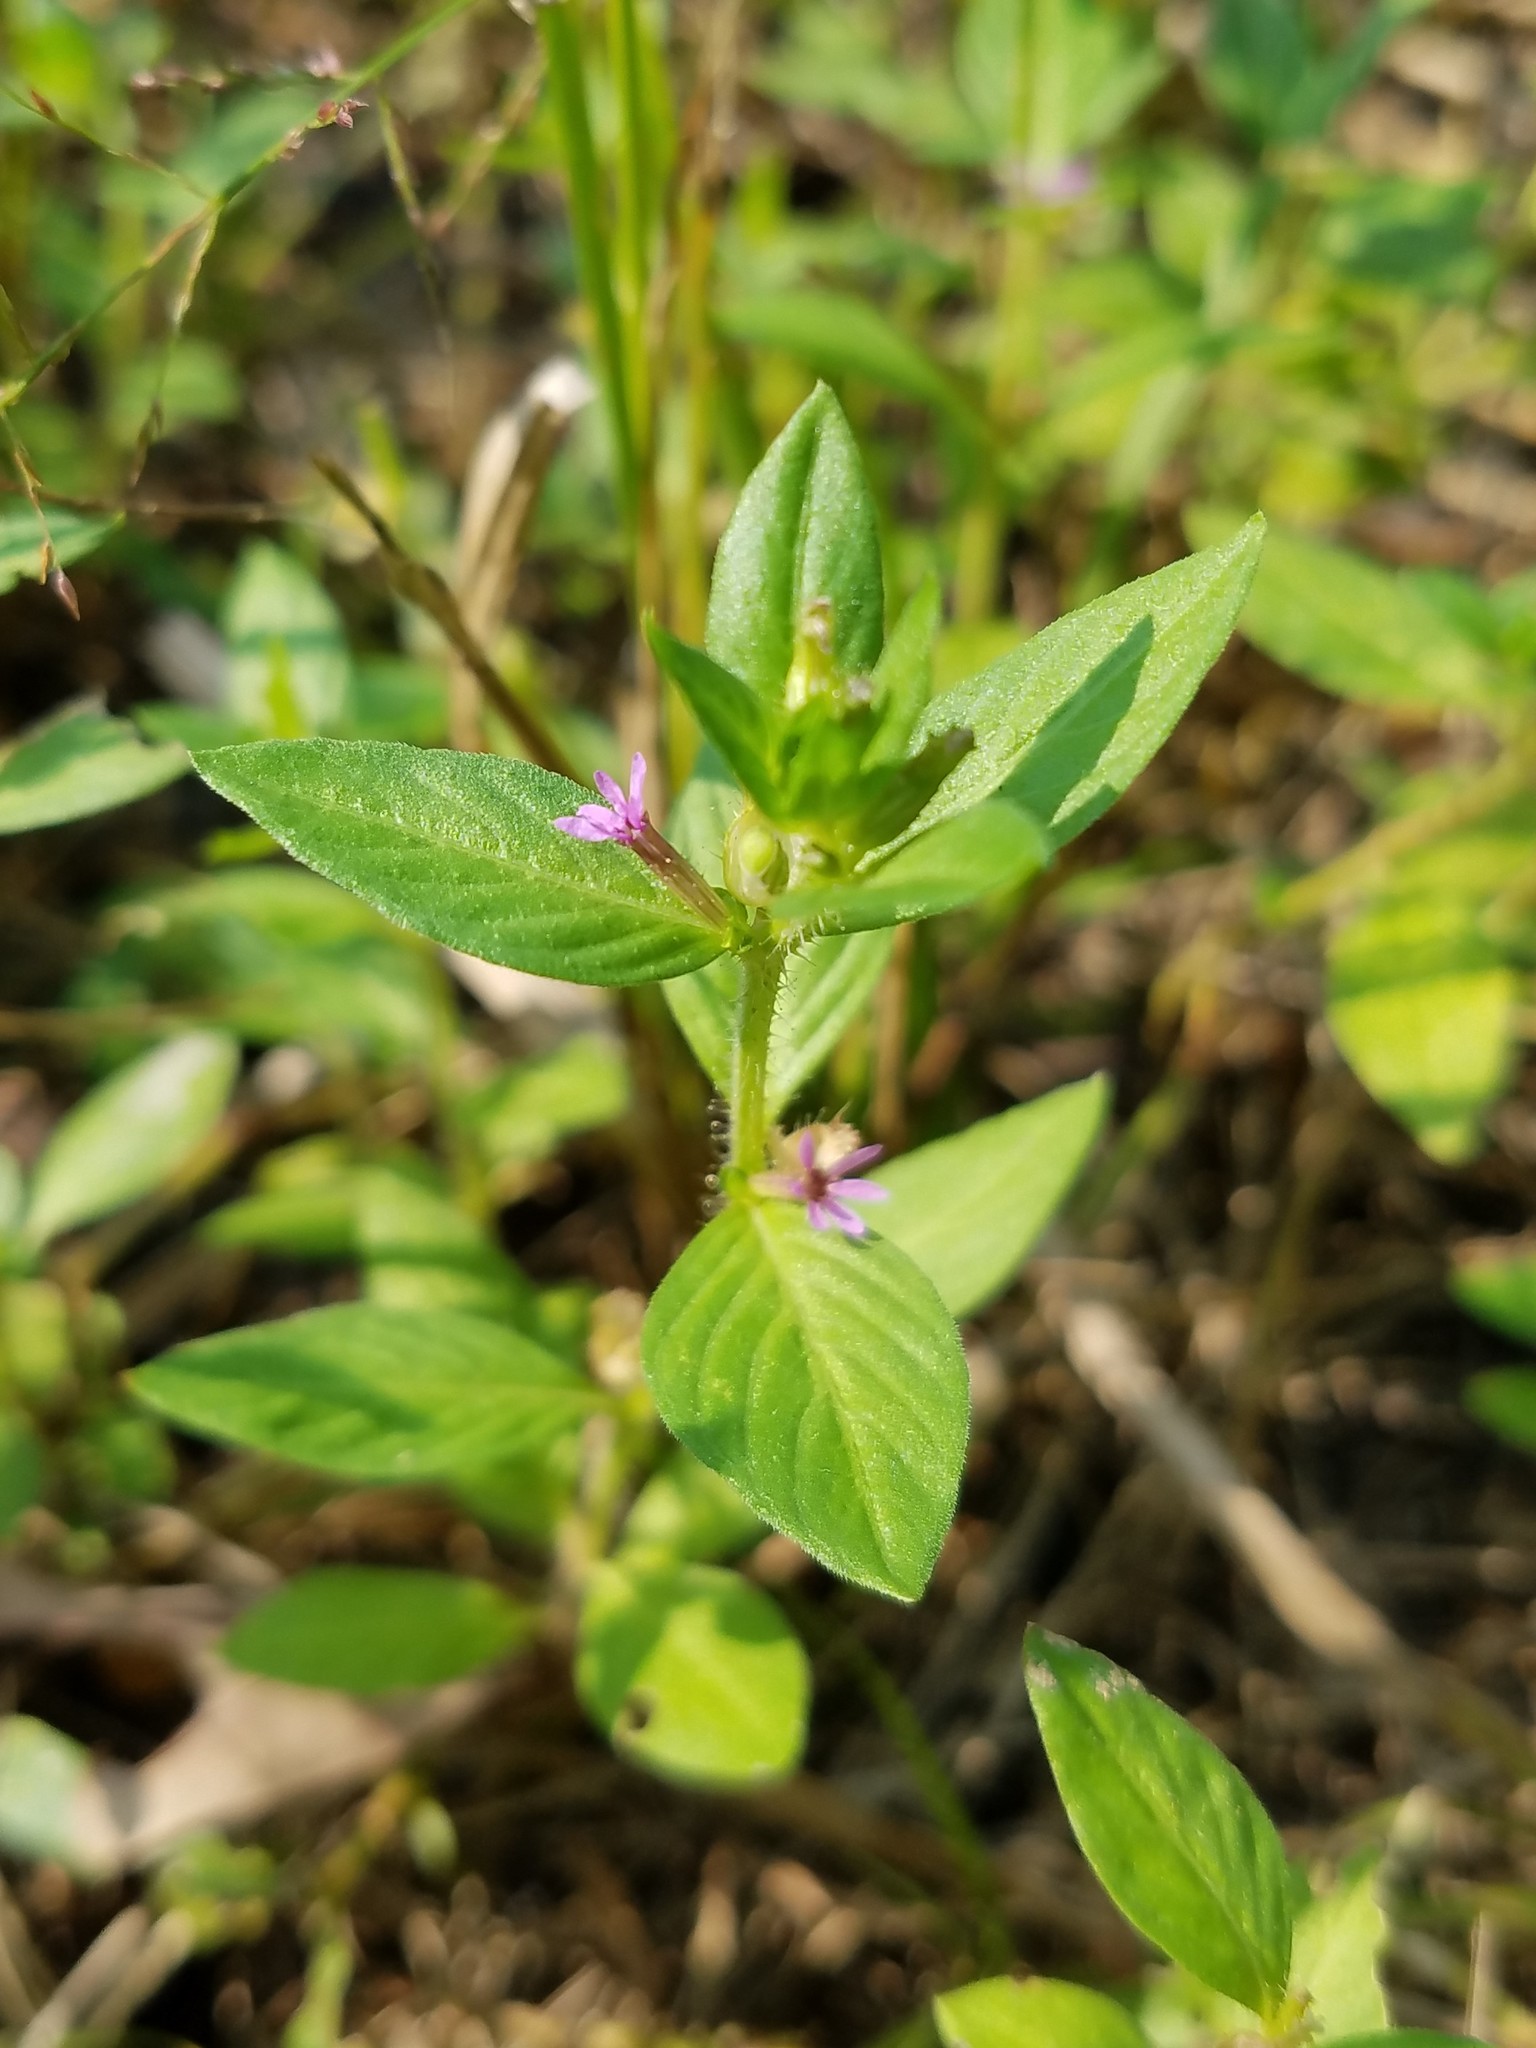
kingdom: Plantae
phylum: Tracheophyta
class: Magnoliopsida
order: Myrtales
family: Lythraceae
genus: Cuphea
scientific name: Cuphea carthagenensis
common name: Colombian waxweed
